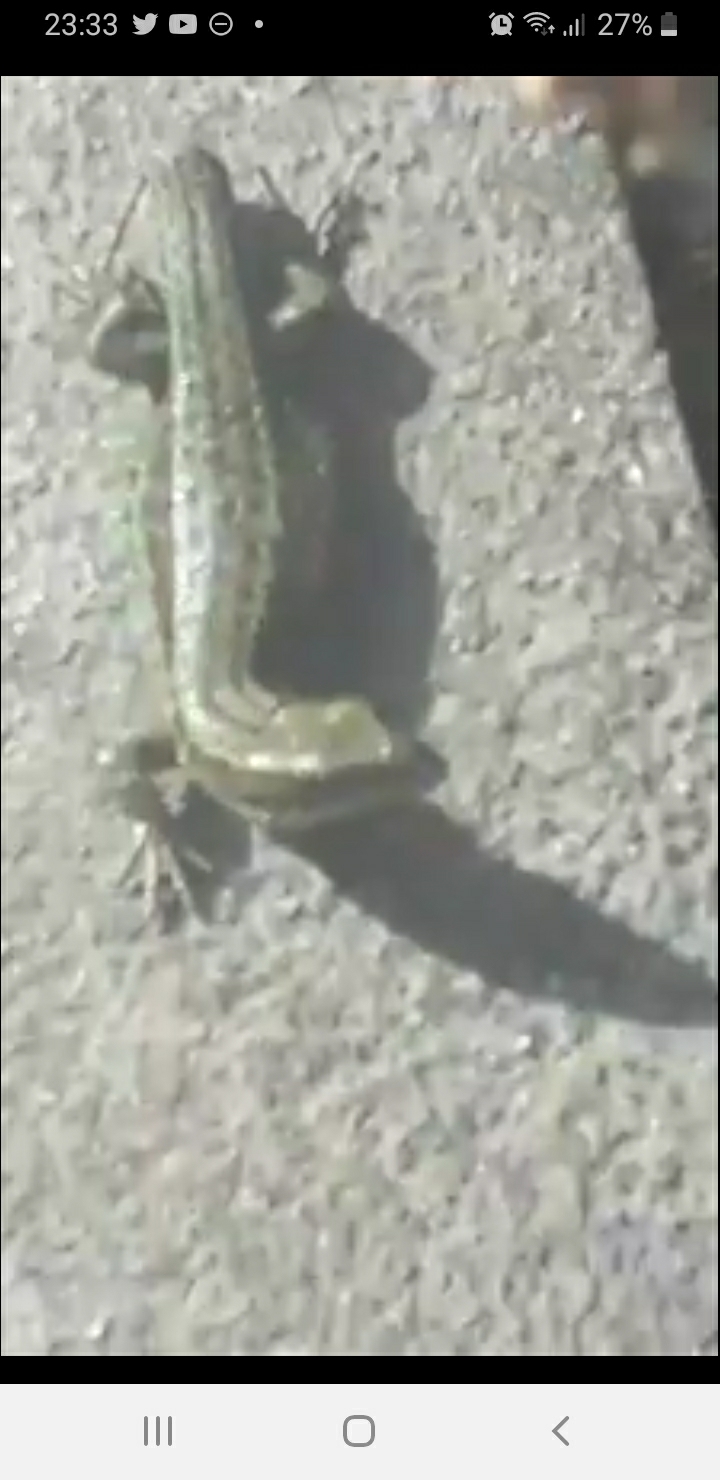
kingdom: Animalia
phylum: Chordata
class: Squamata
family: Lacertidae
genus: Zootoca
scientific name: Zootoca vivipara
